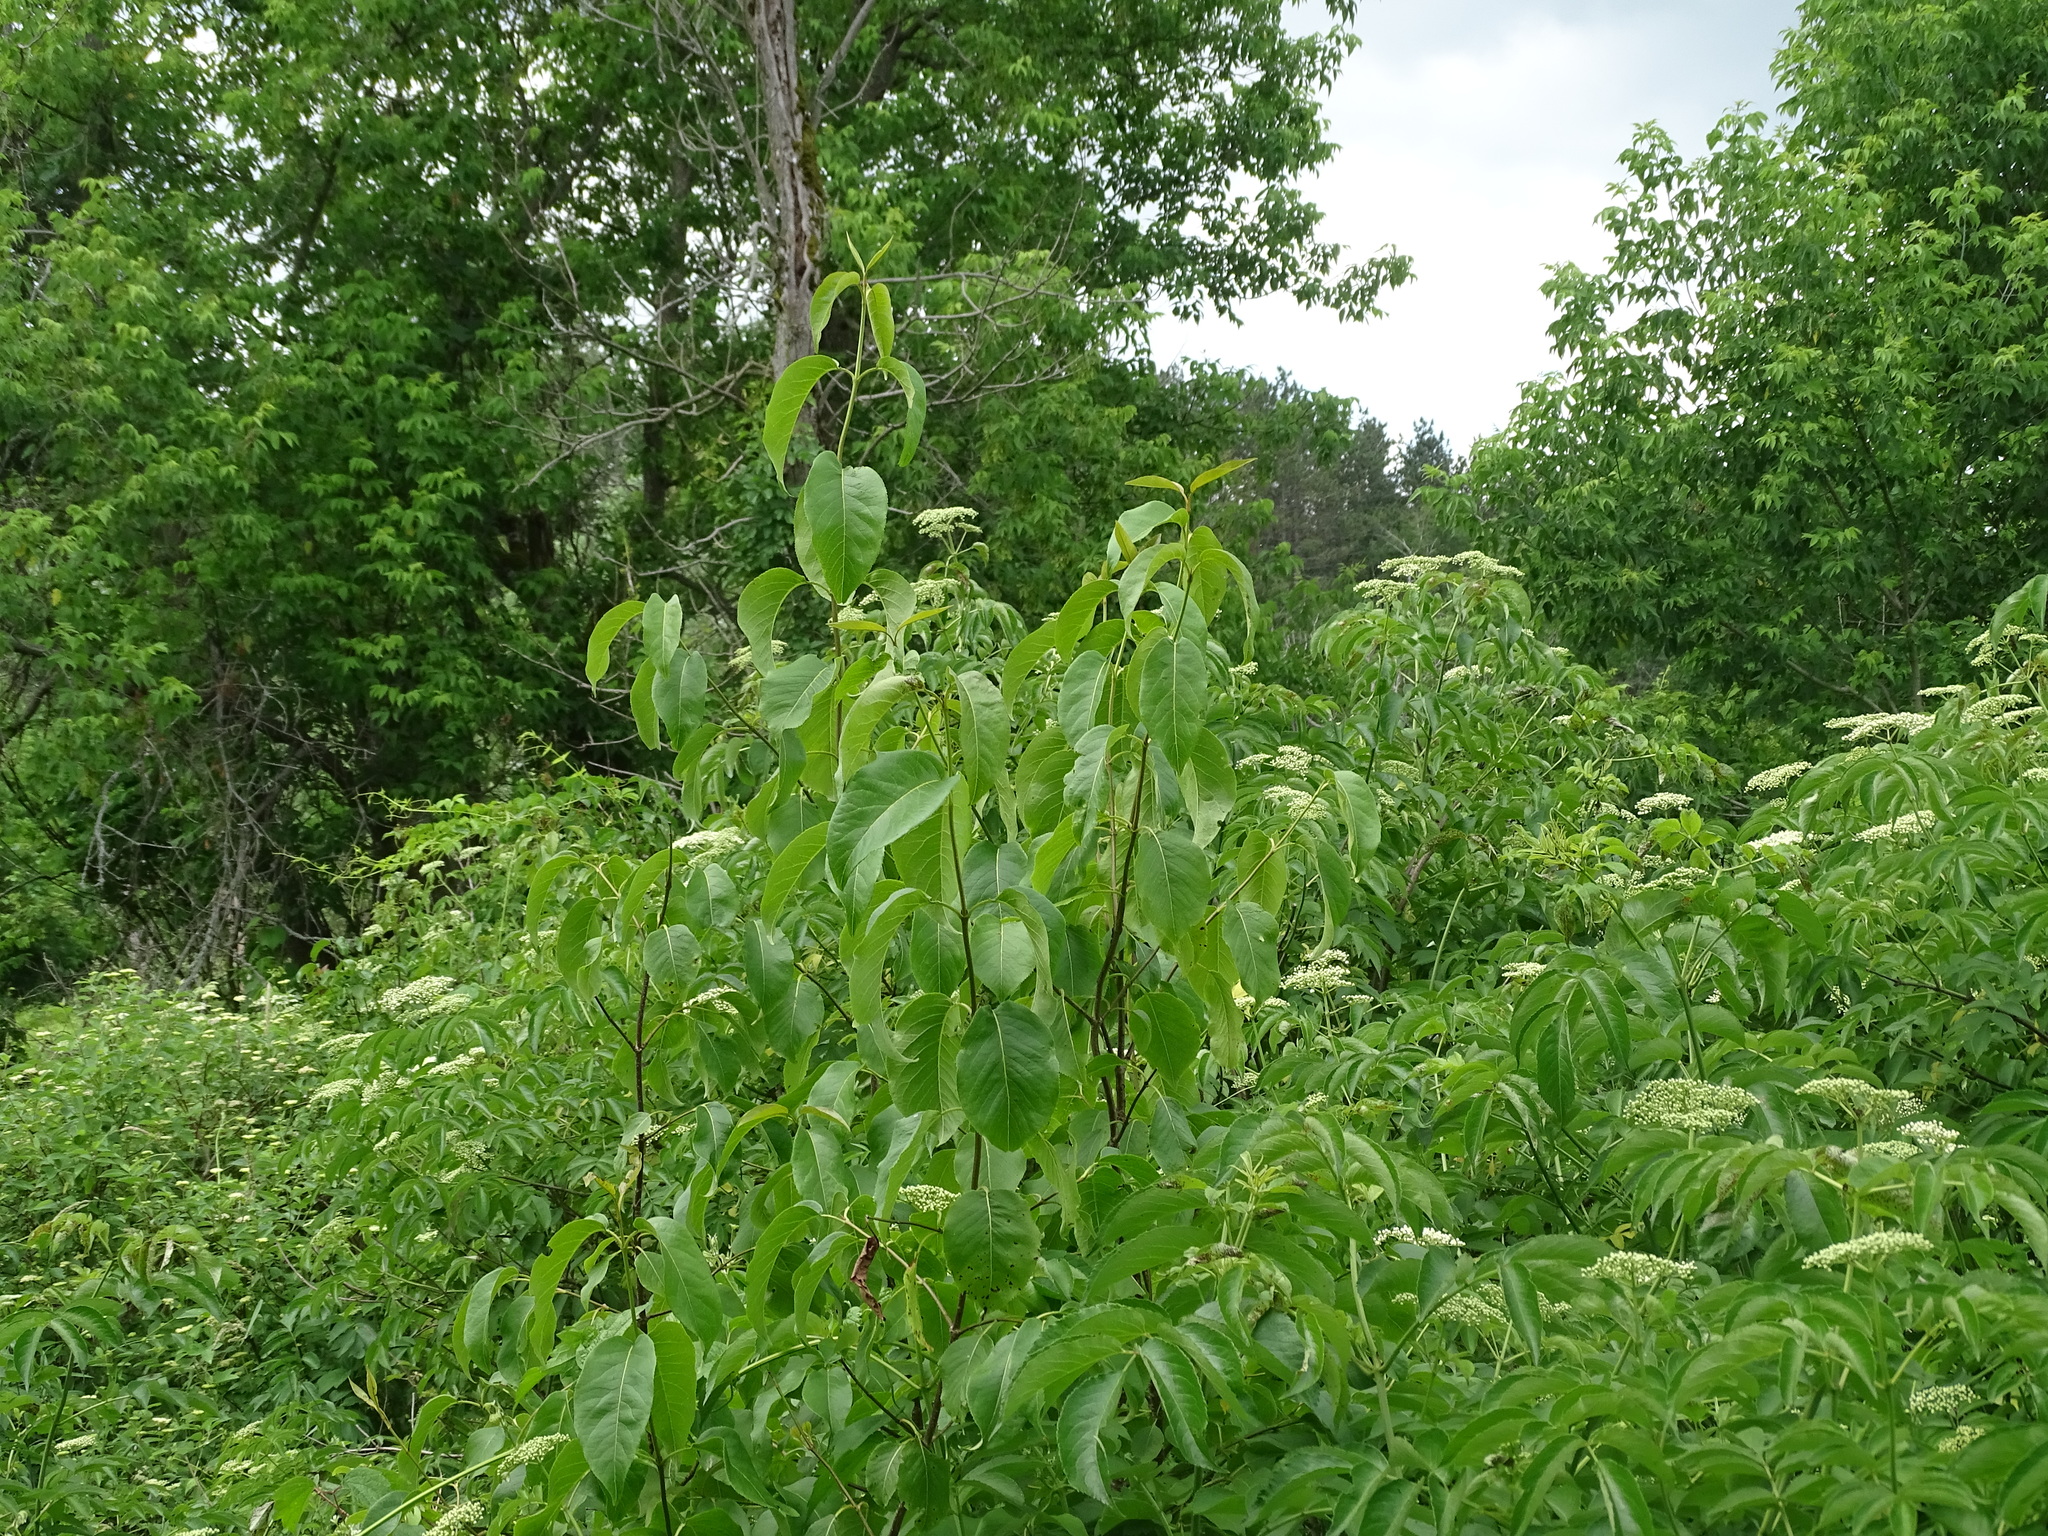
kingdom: Plantae
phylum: Tracheophyta
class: Magnoliopsida
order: Dipsacales
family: Viburnaceae
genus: Viburnum
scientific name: Viburnum lentago
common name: Black haw
